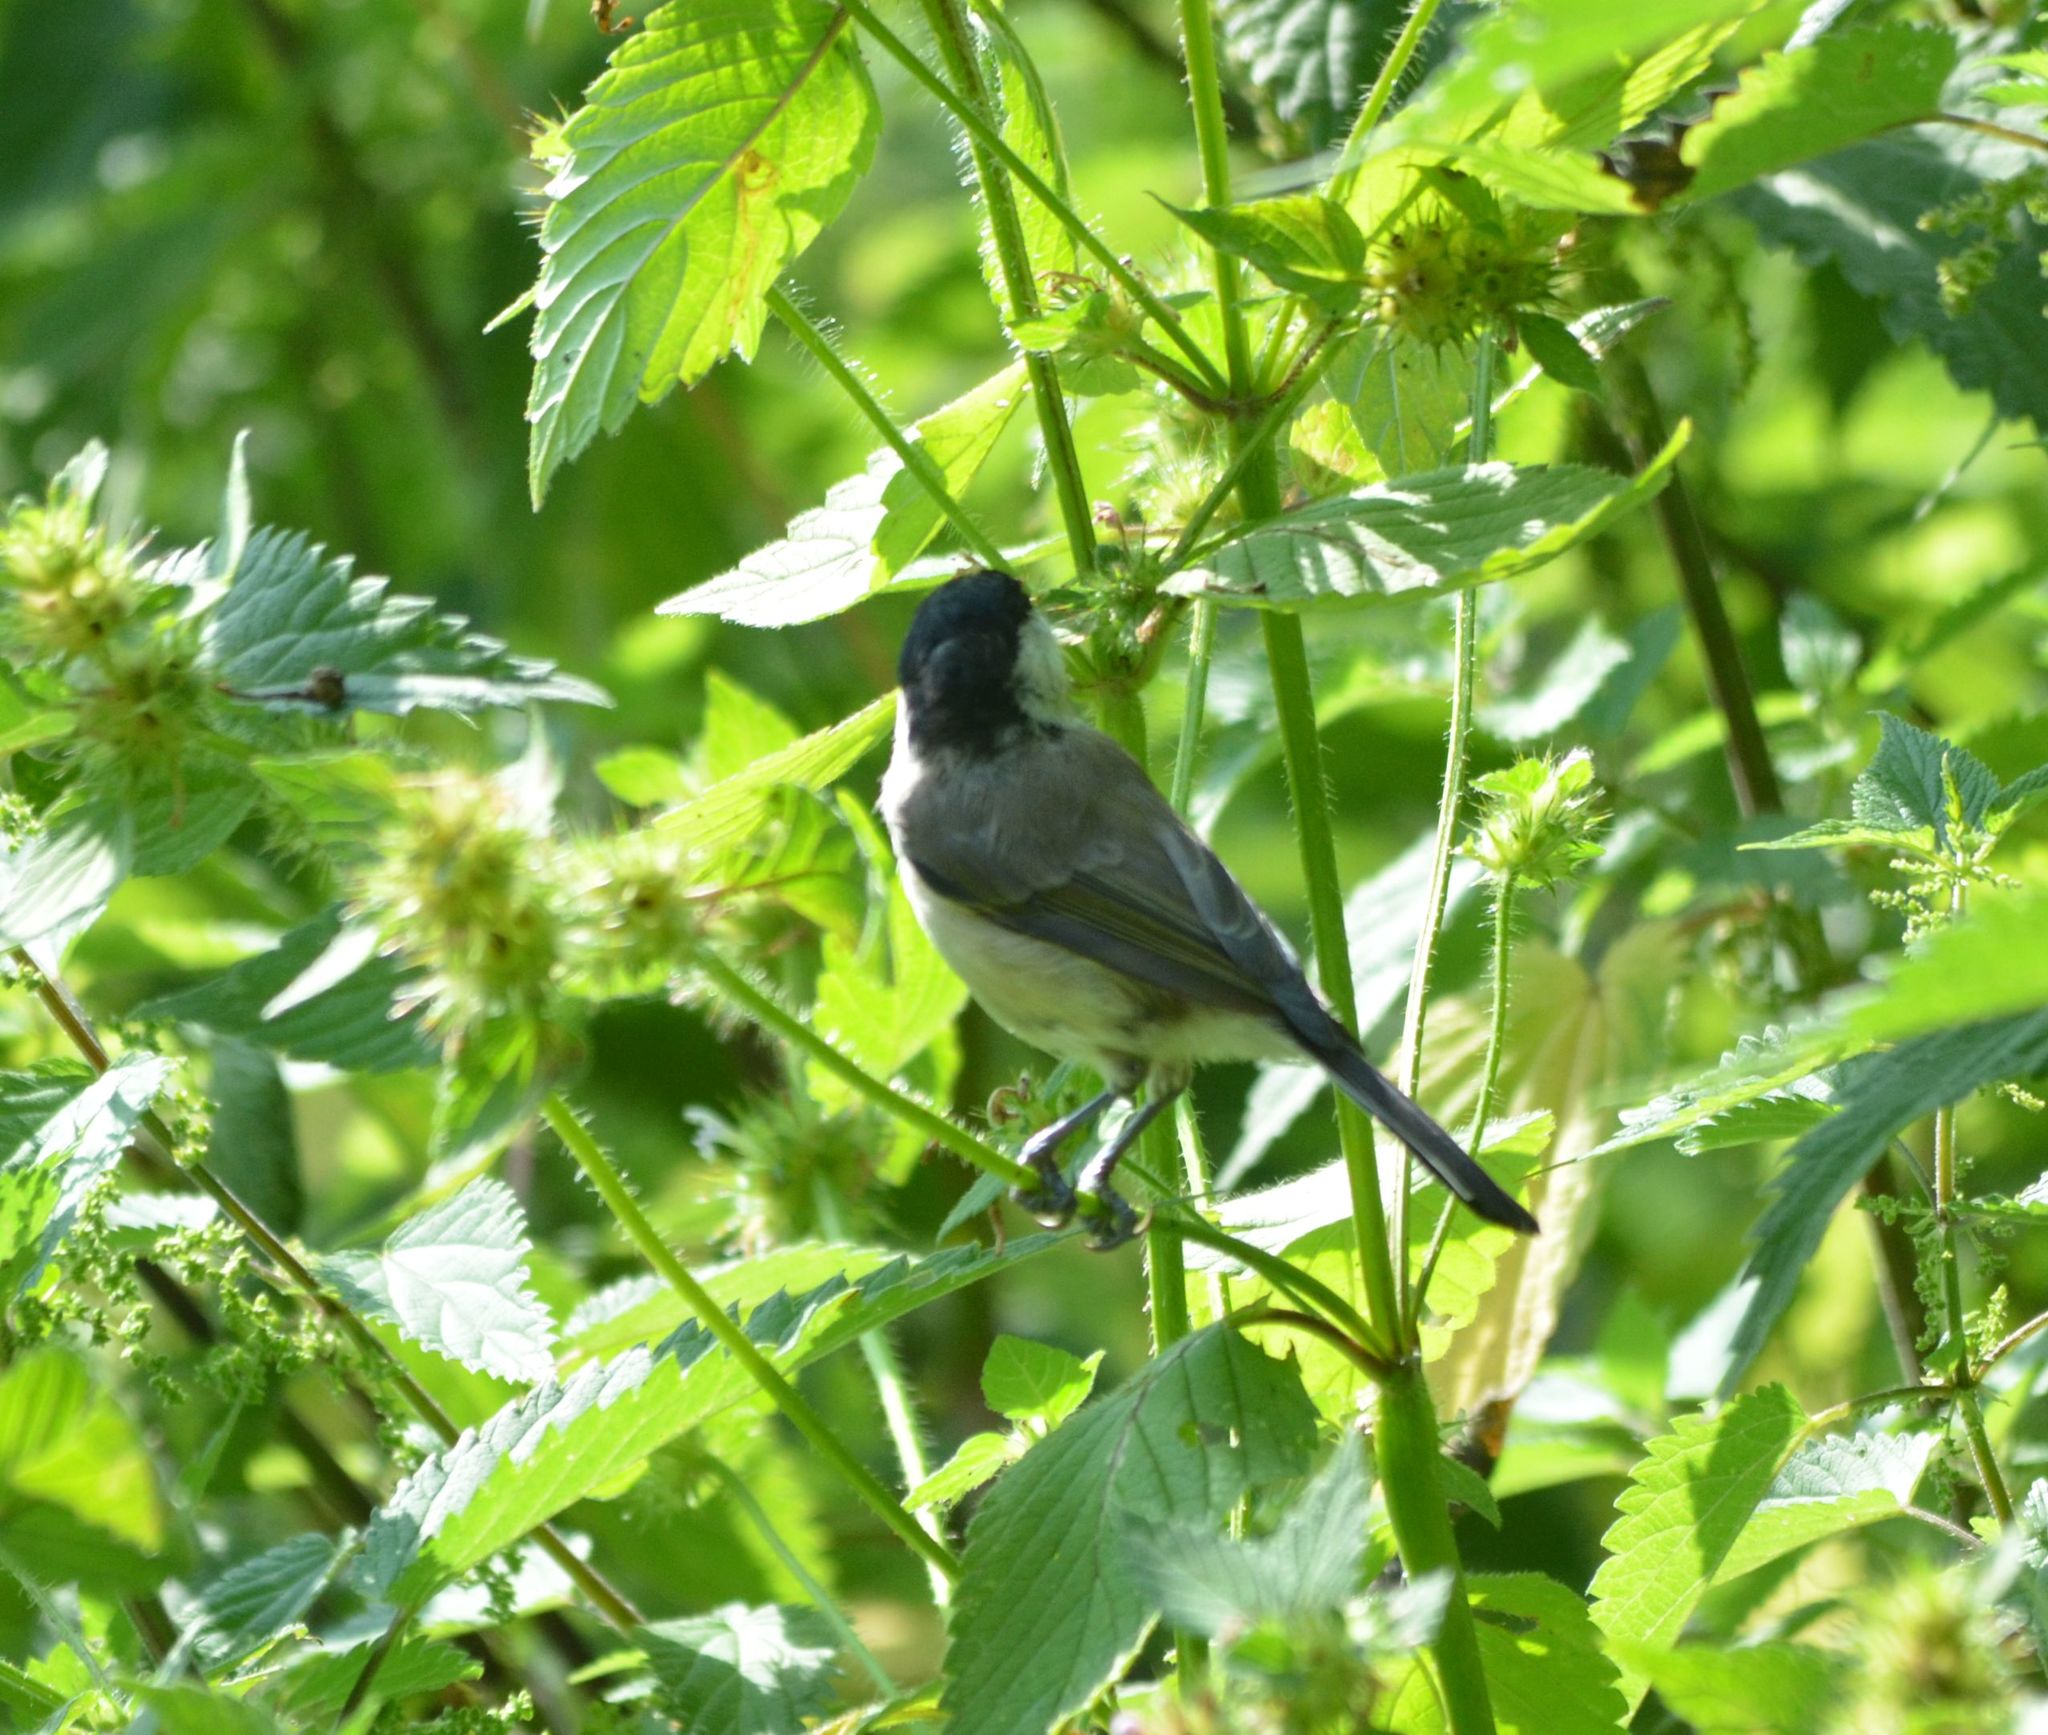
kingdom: Animalia
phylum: Chordata
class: Aves
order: Passeriformes
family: Paridae
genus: Poecile
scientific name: Poecile palustris
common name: Marsh tit
